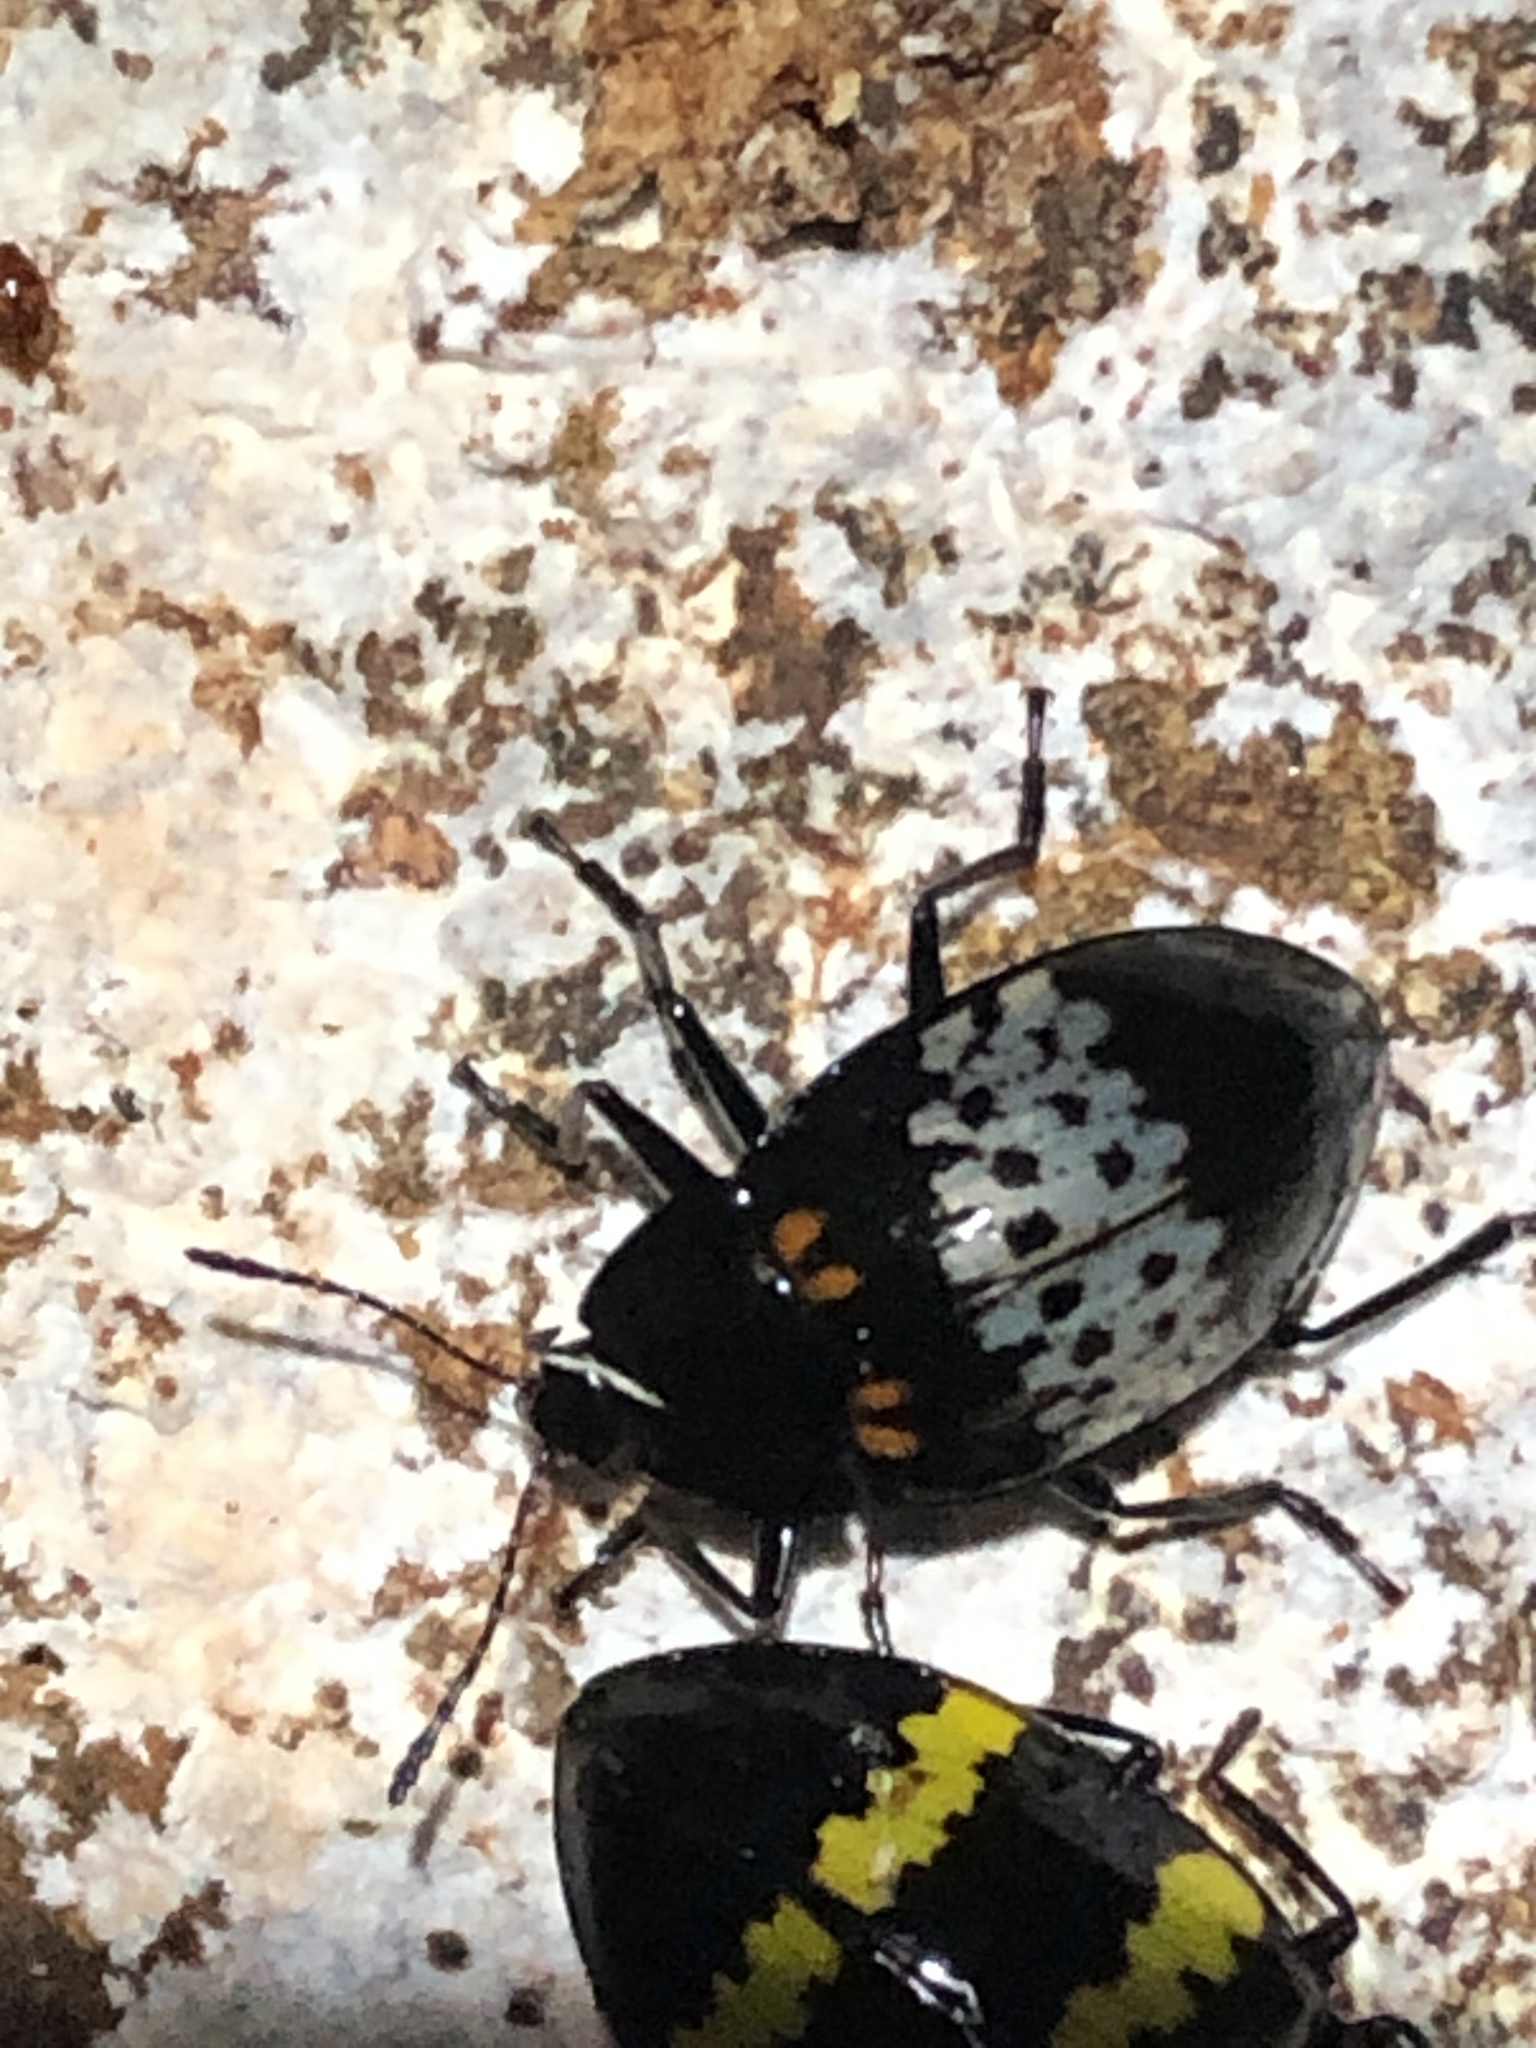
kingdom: Animalia
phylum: Arthropoda
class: Insecta
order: Coleoptera
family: Erotylidae
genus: Prepopharus
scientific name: Prepopharus
